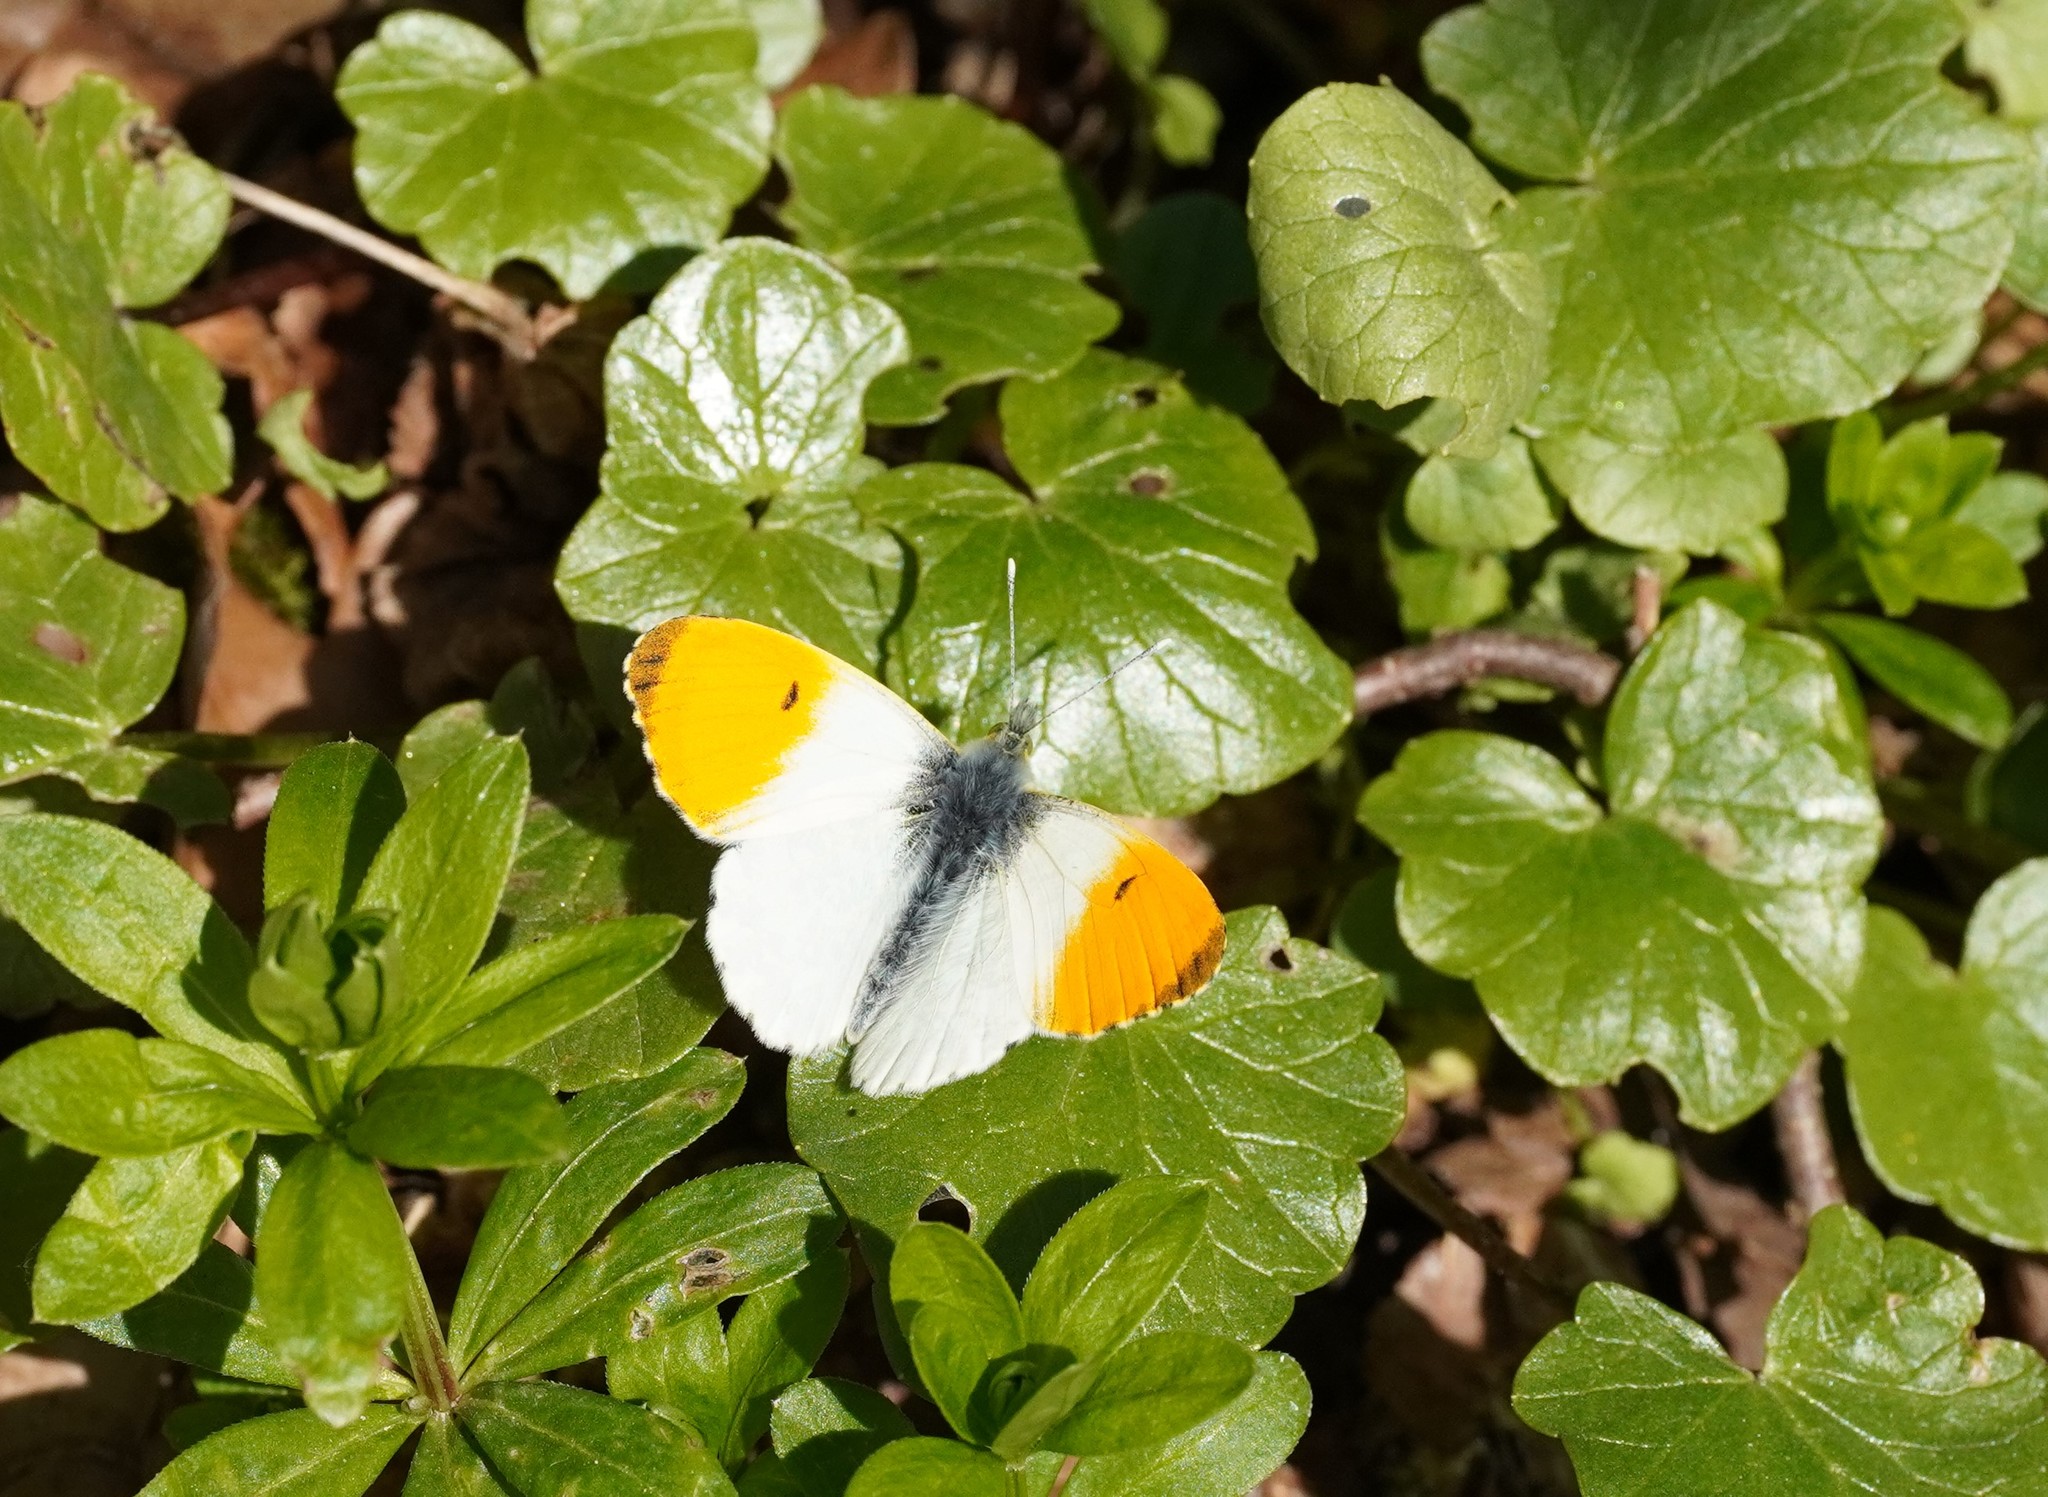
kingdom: Animalia
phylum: Arthropoda
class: Insecta
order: Lepidoptera
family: Pieridae
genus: Anthocharis
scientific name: Anthocharis cardamines
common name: Orange-tip
